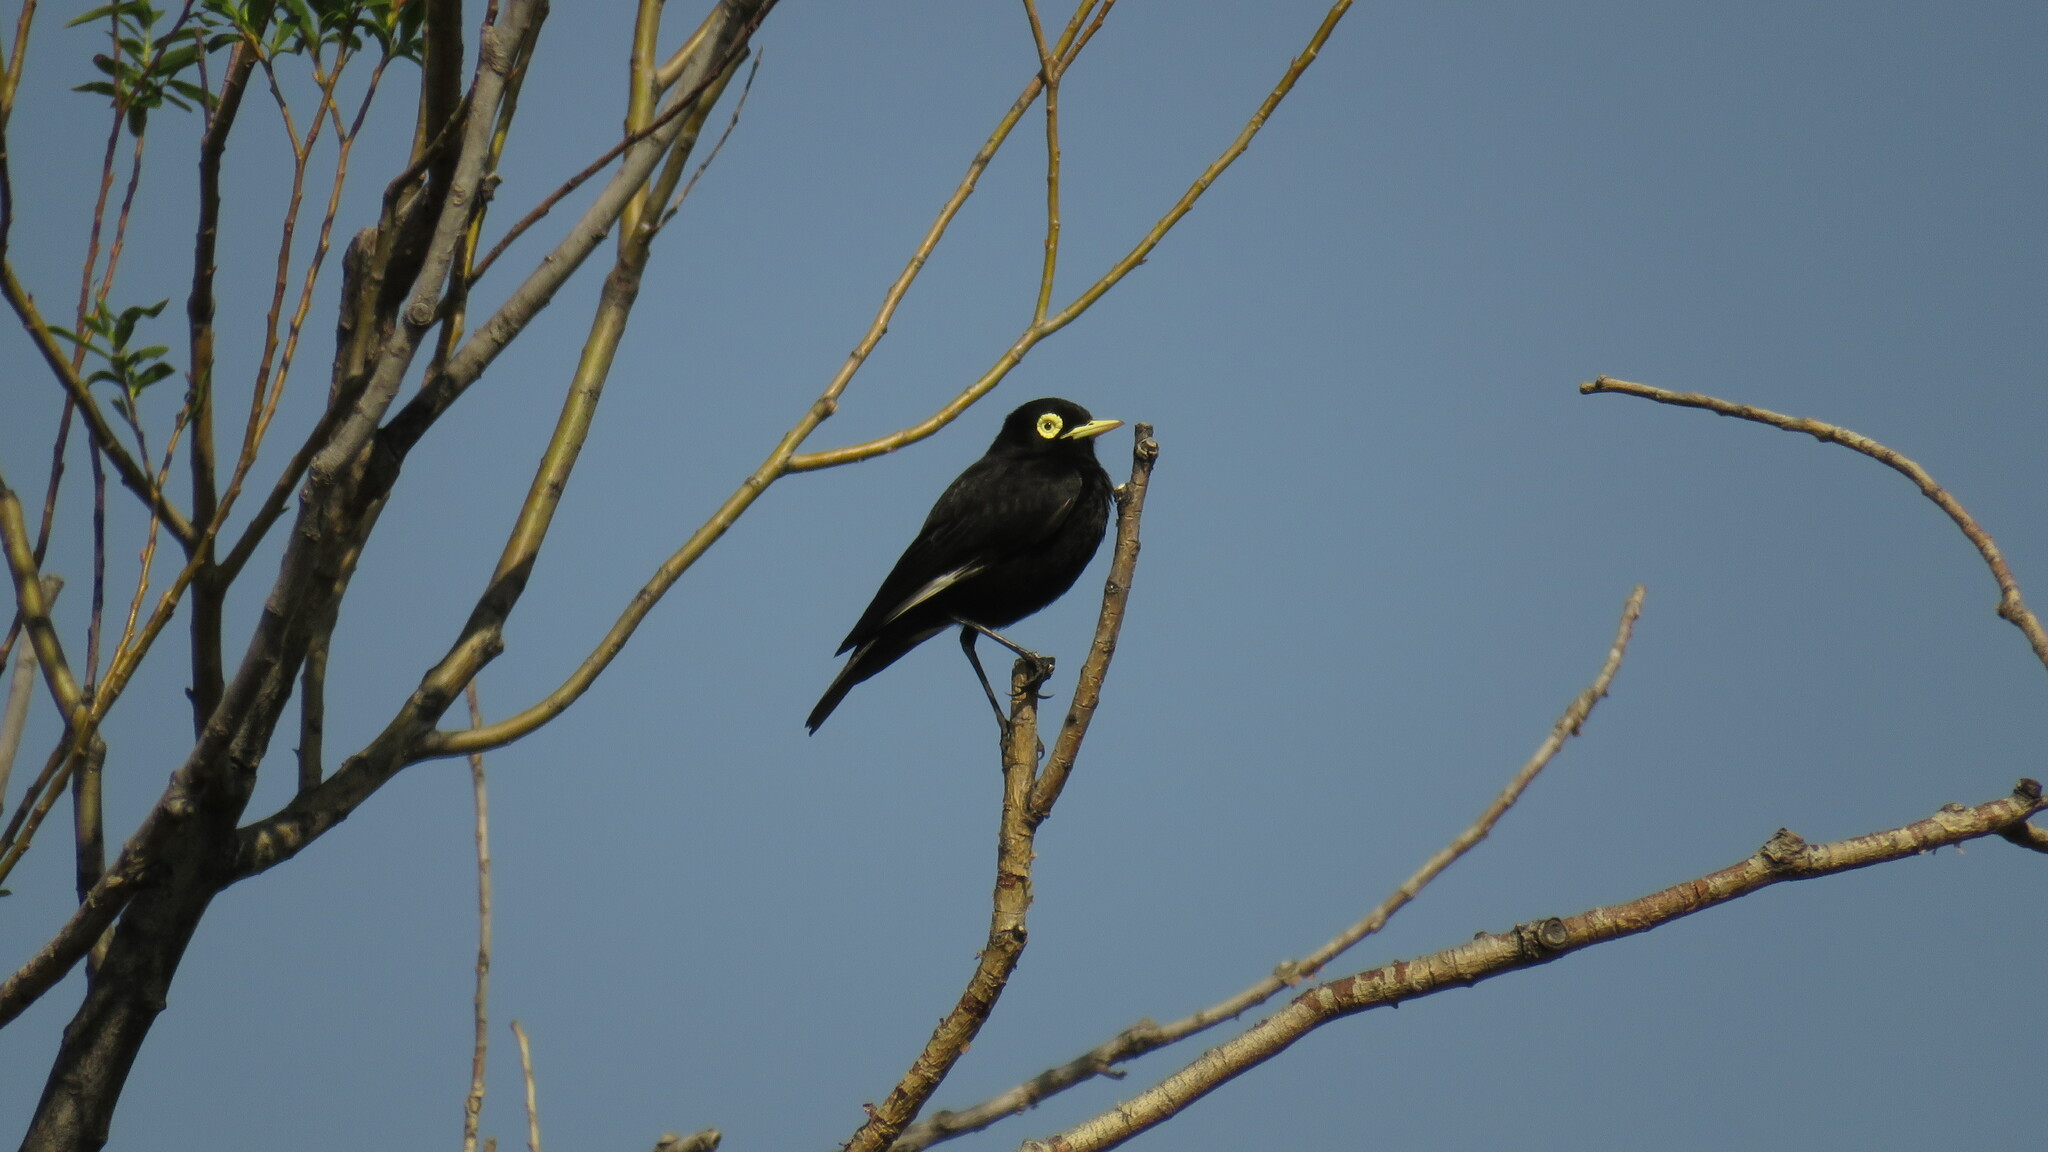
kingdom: Animalia
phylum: Chordata
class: Aves
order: Passeriformes
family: Tyrannidae
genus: Hymenops
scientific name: Hymenops perspicillatus
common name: Spectacled tyrant
